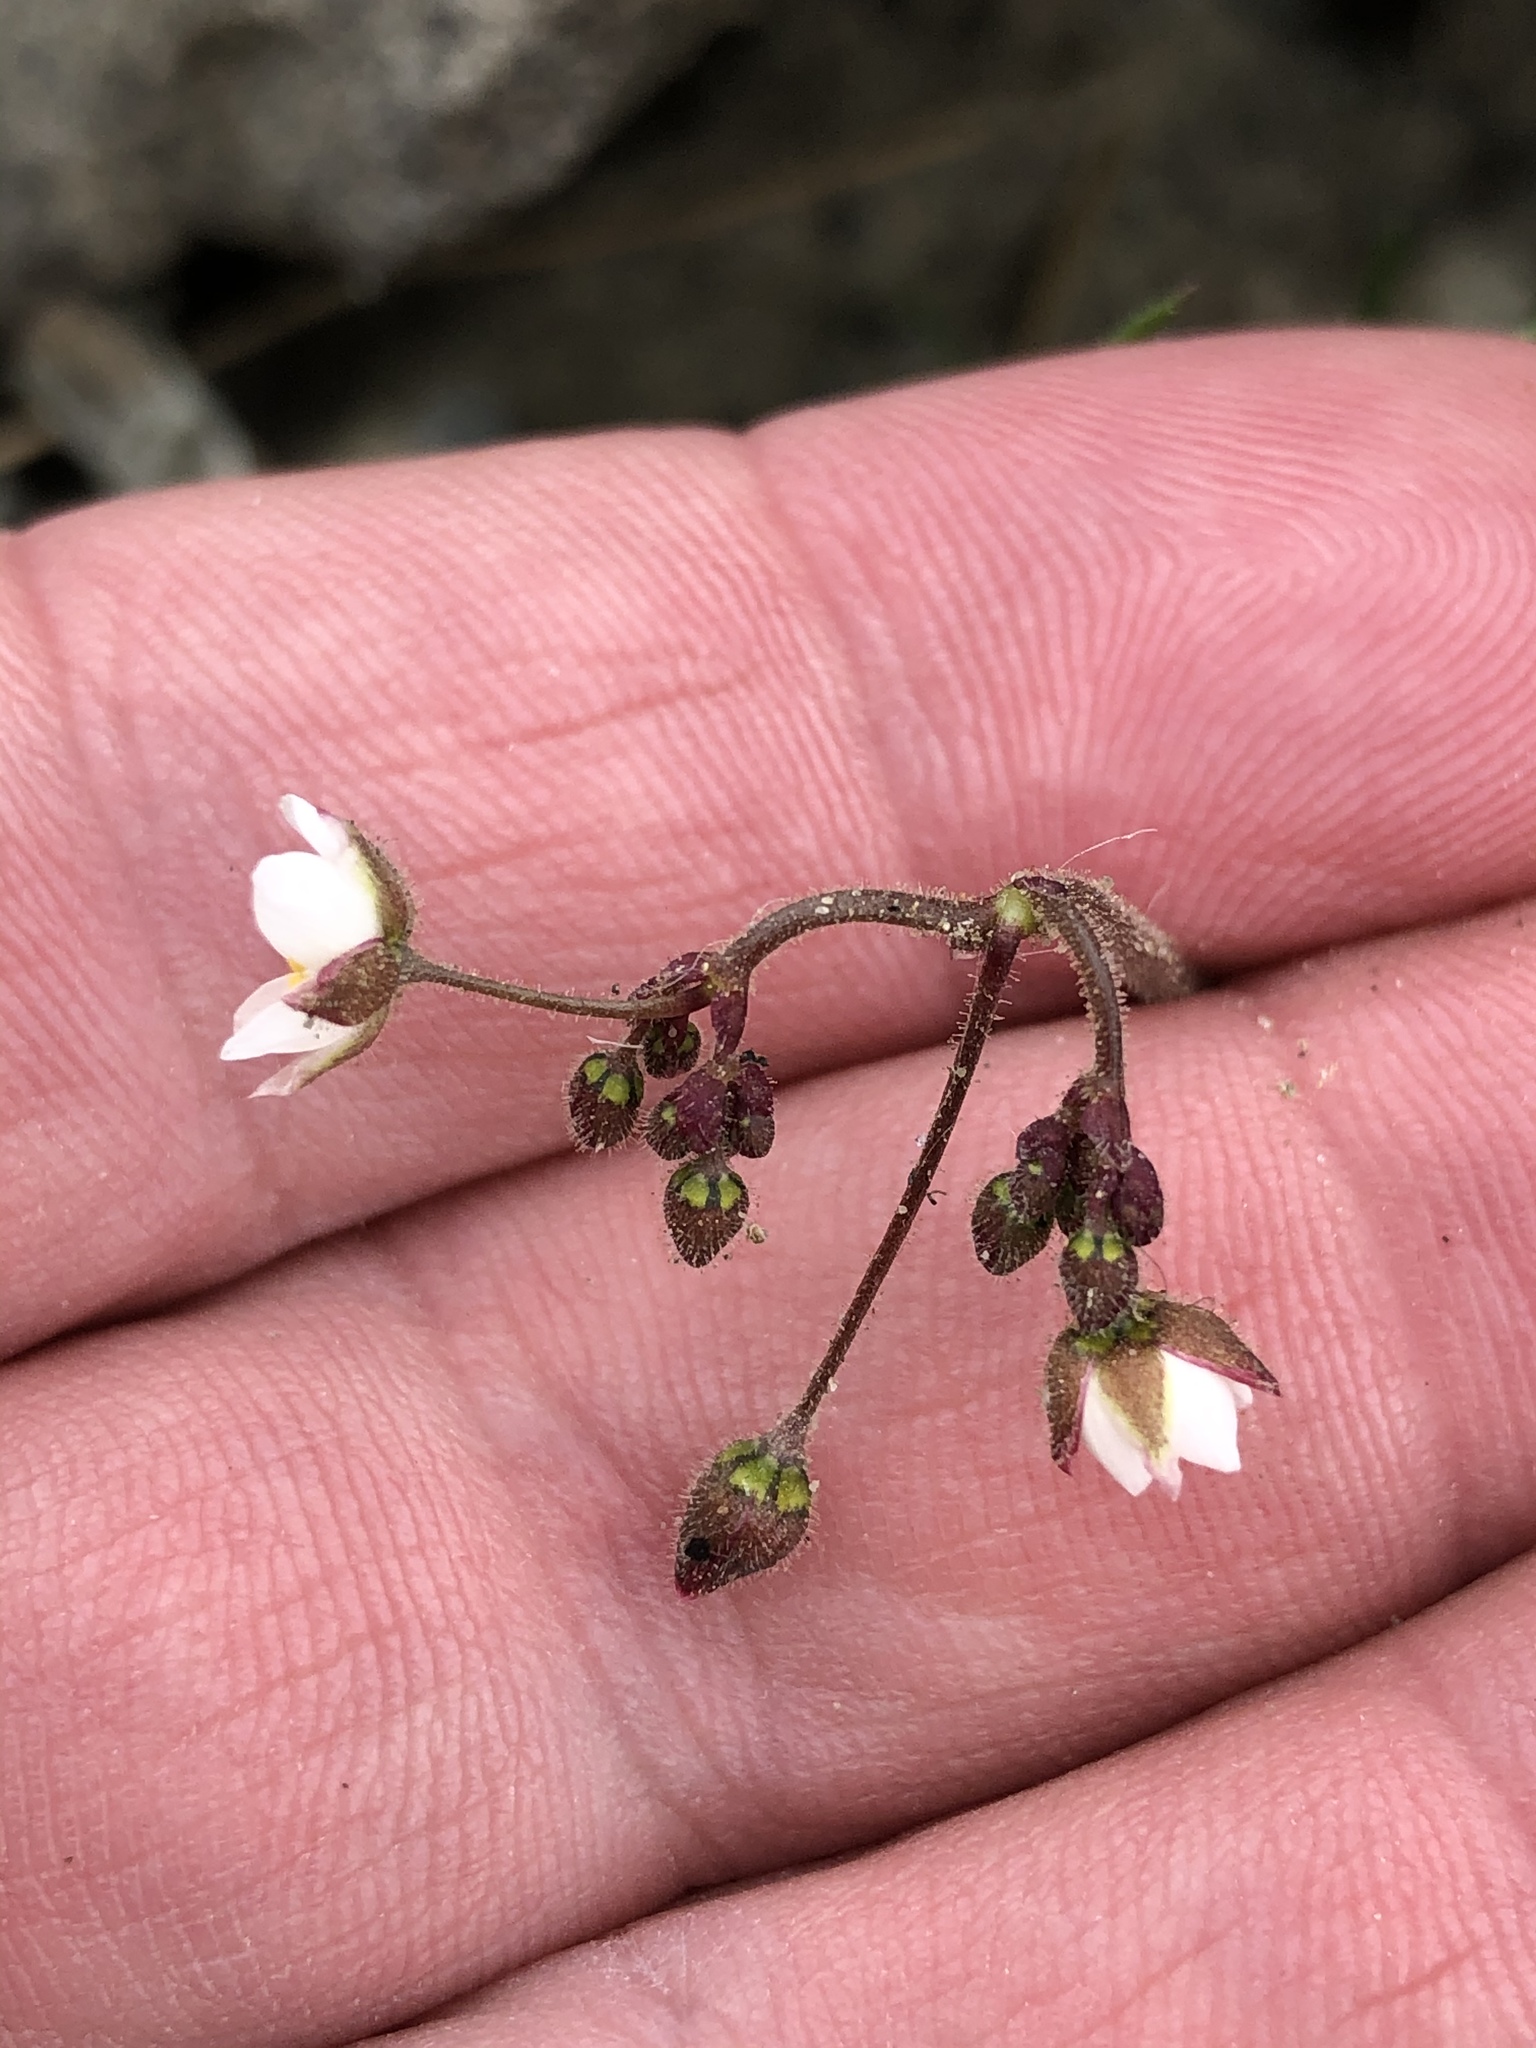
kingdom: Plantae
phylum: Tracheophyta
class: Magnoliopsida
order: Caryophyllales
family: Caryophyllaceae
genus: Spergula
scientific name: Spergula arvensis
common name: Corn spurrey
